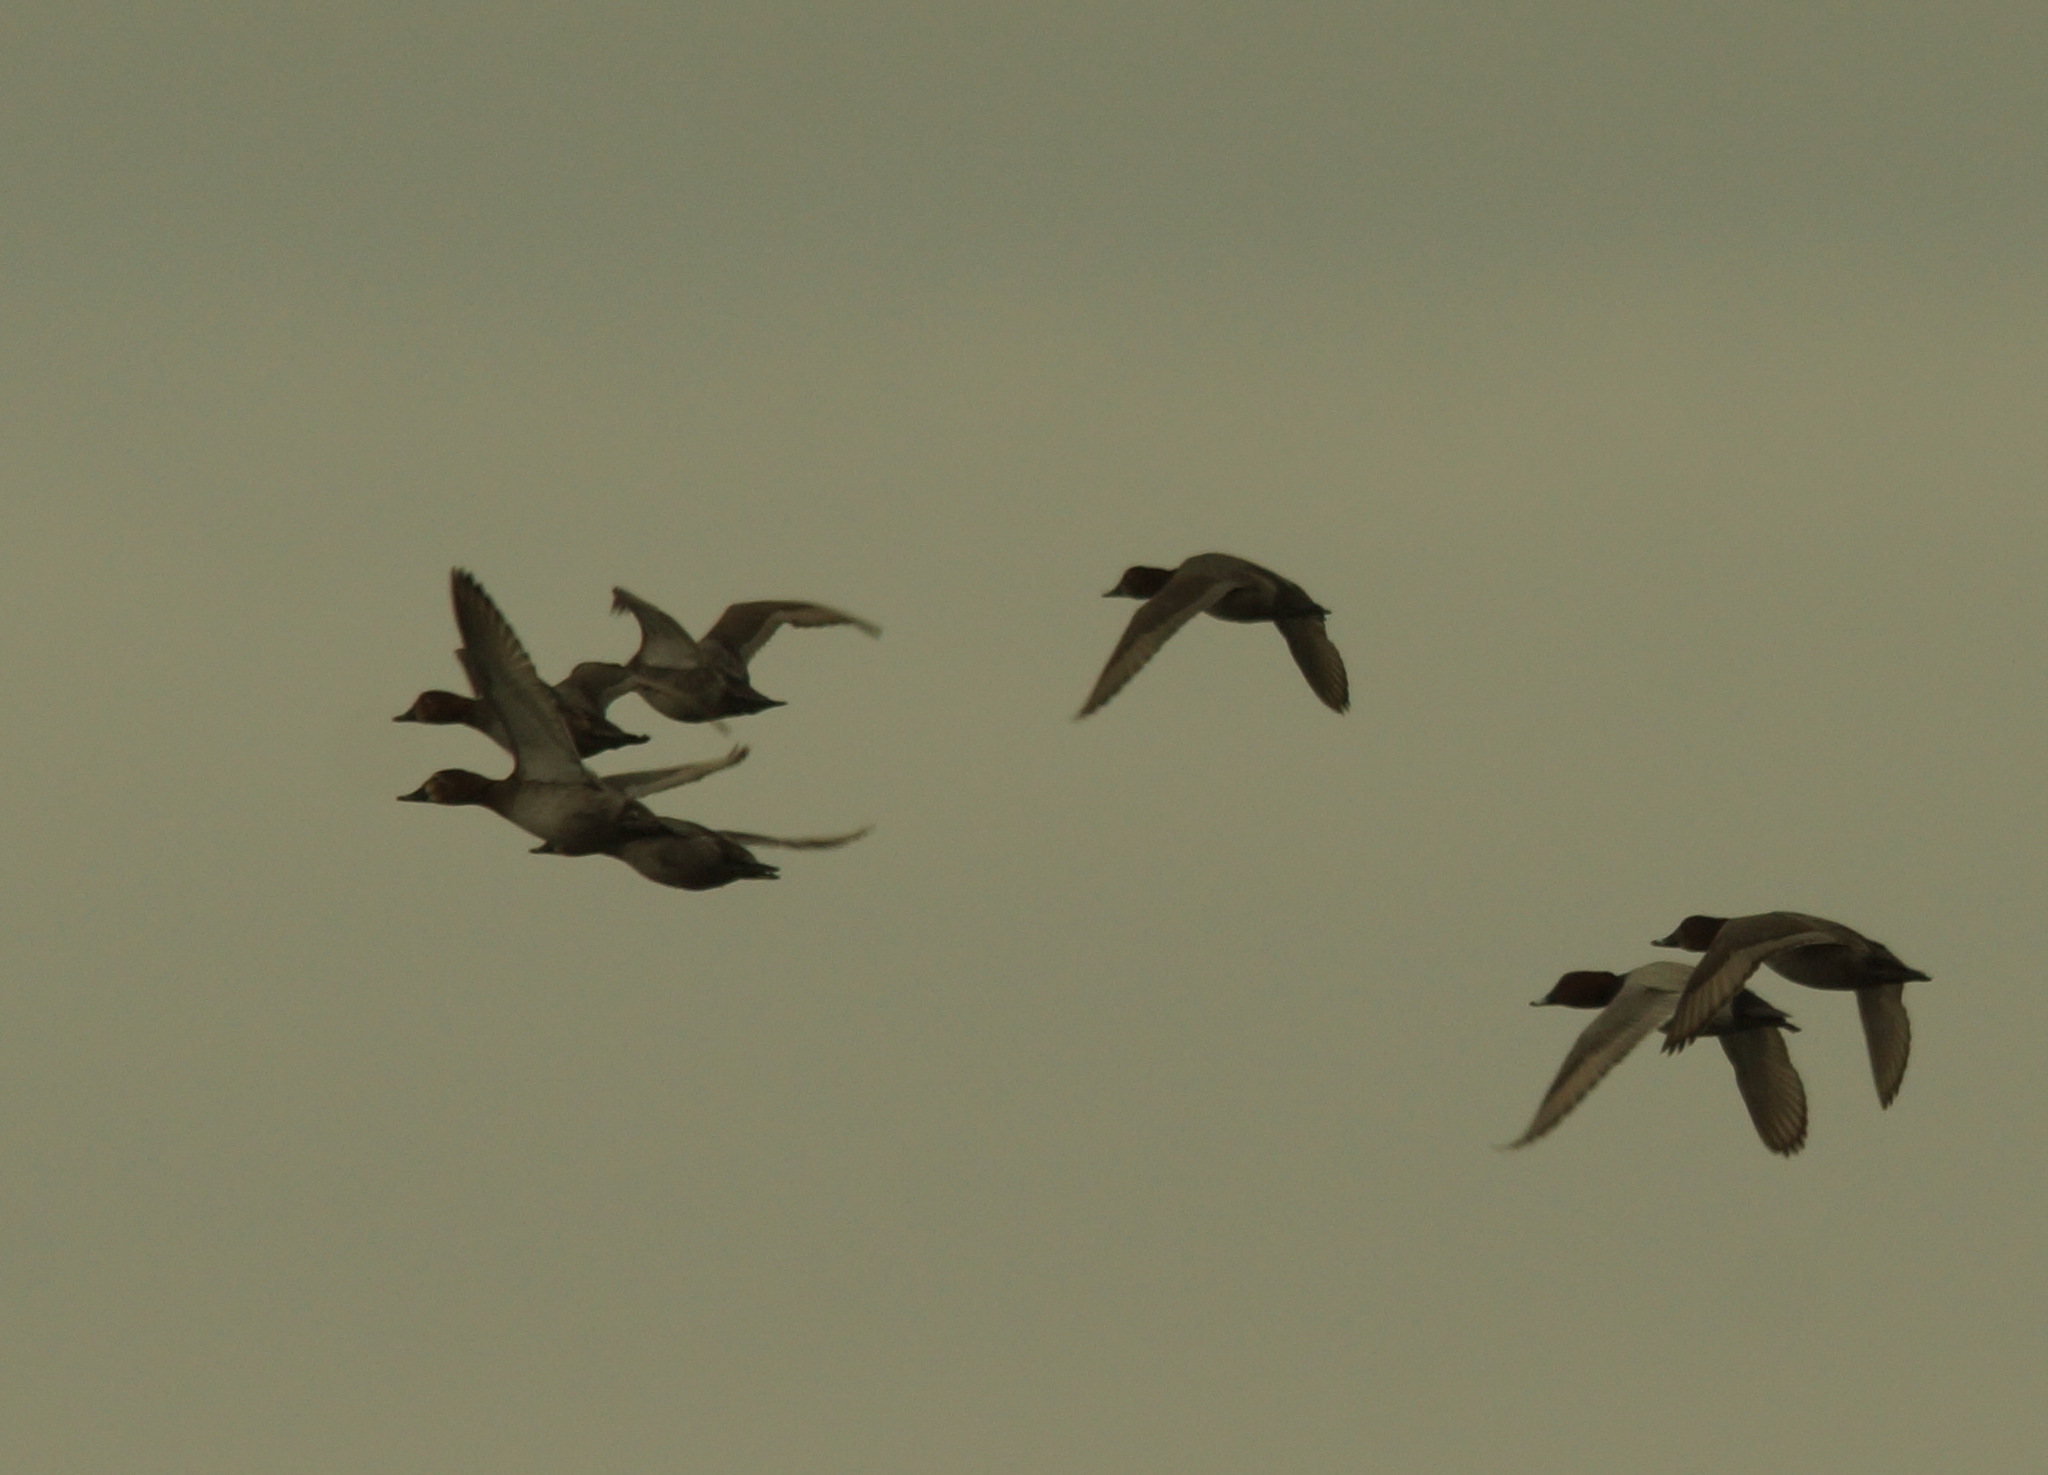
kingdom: Animalia
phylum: Chordata
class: Aves
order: Anseriformes
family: Anatidae
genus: Aythya
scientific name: Aythya ferina
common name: Common pochard
